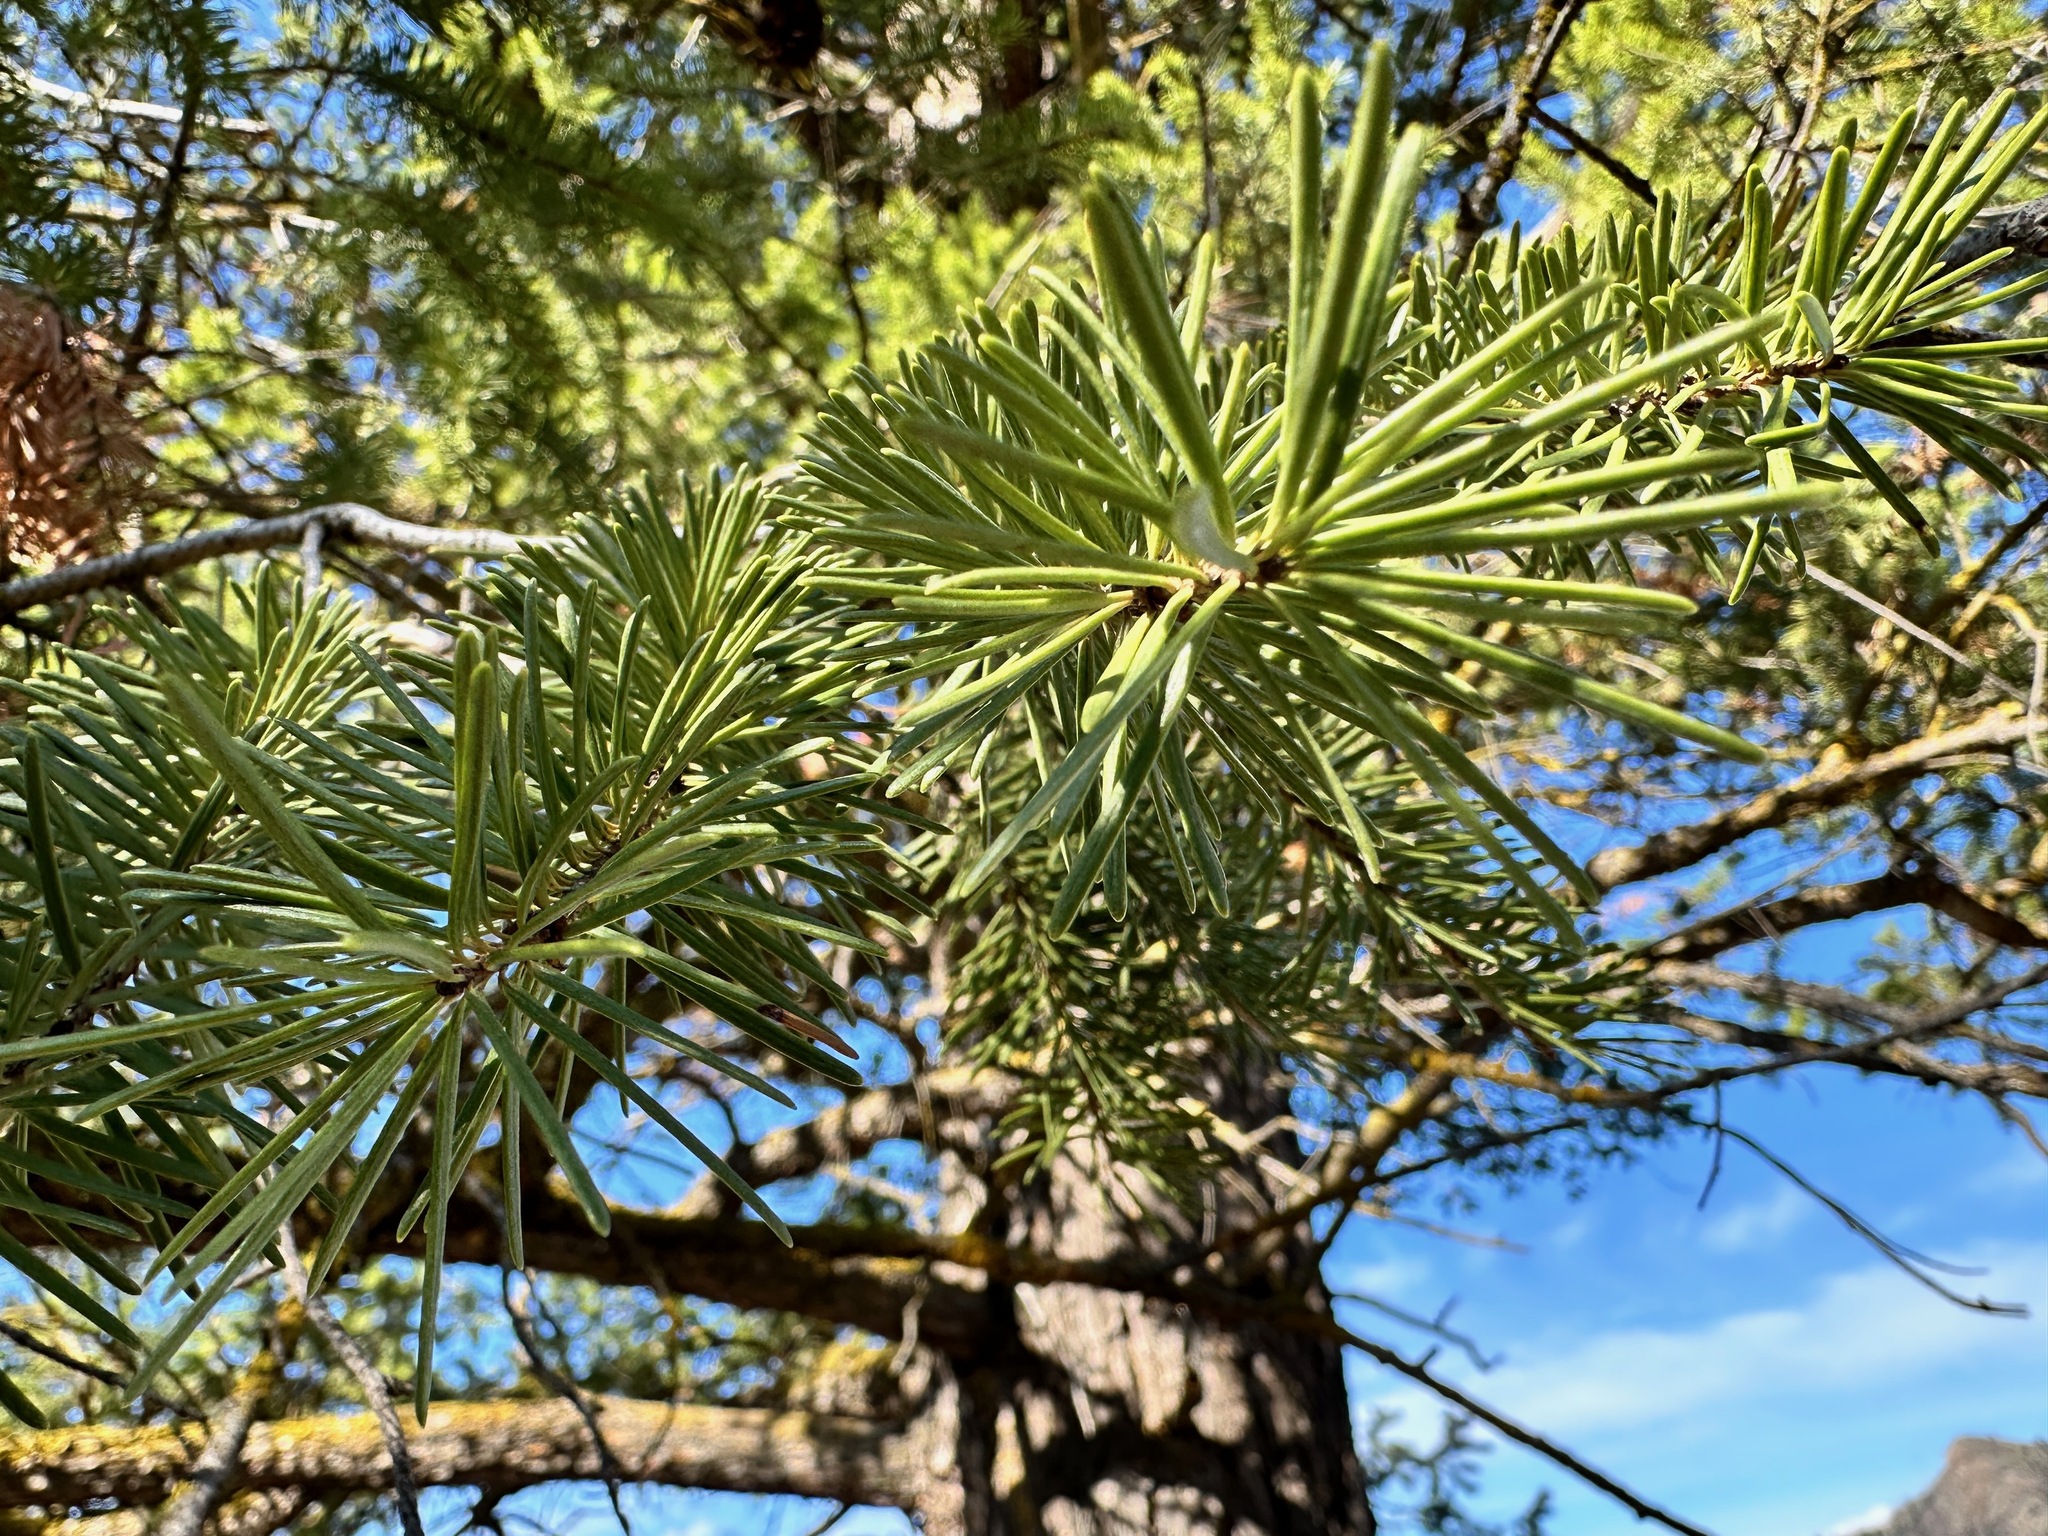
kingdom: Plantae
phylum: Tracheophyta
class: Pinopsida
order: Pinales
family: Pinaceae
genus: Pseudotsuga
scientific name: Pseudotsuga menziesii
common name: Douglas fir
